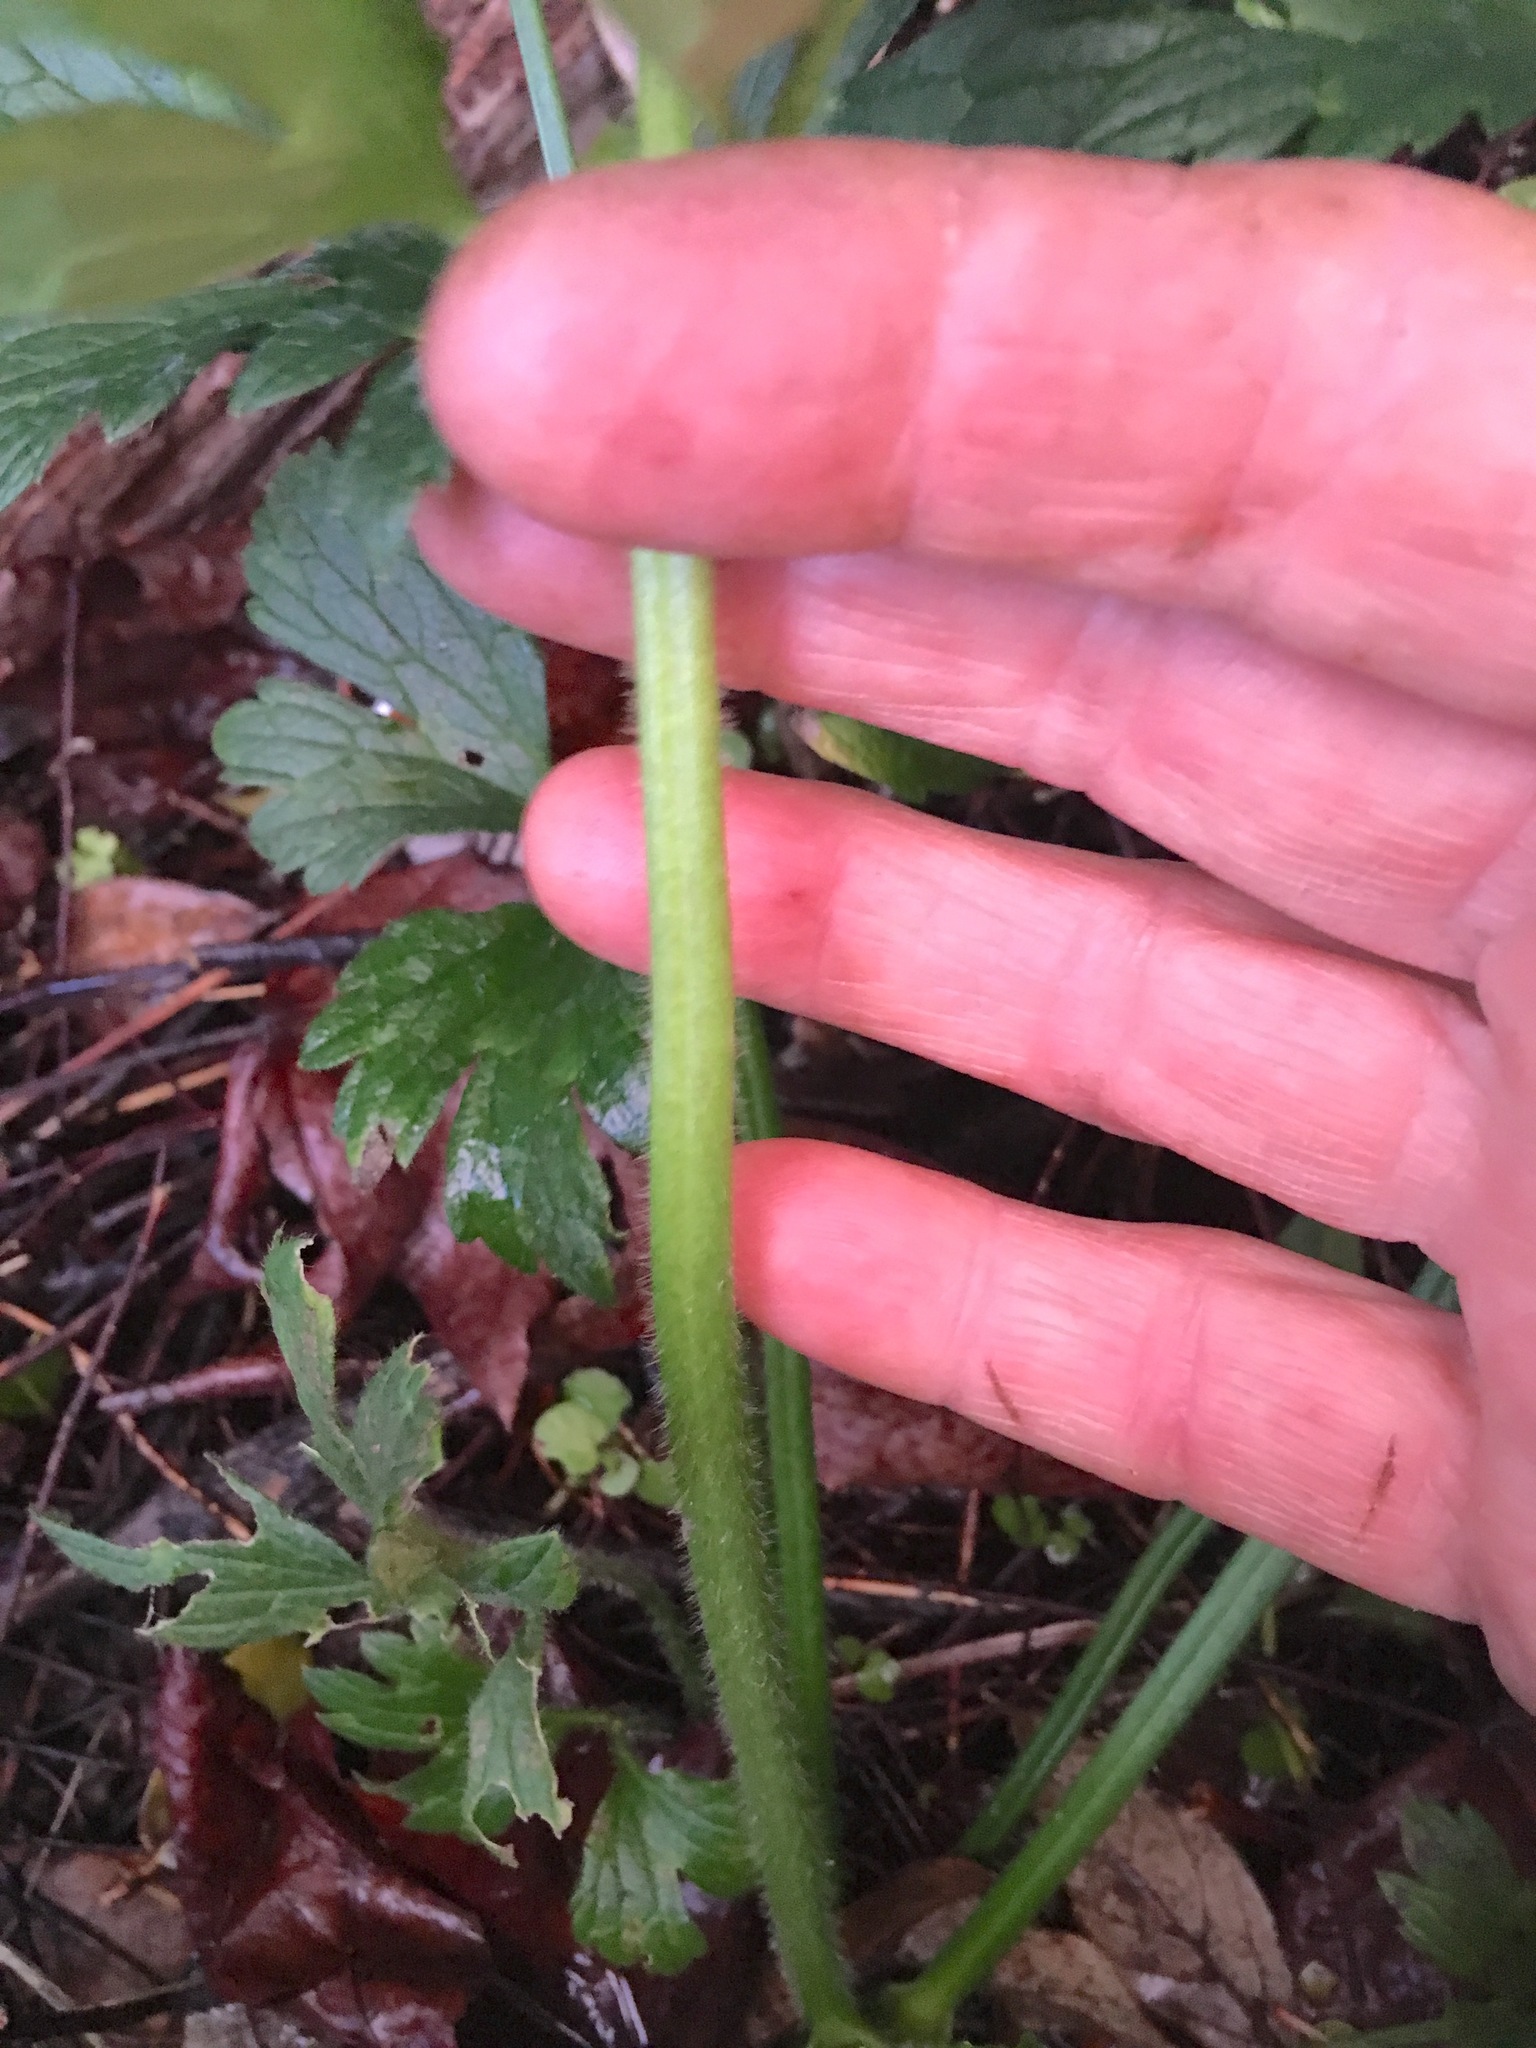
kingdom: Plantae
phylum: Tracheophyta
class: Magnoliopsida
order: Ranunculales
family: Ranunculaceae
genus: Ranunculus
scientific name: Ranunculus repens
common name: Creeping buttercup
